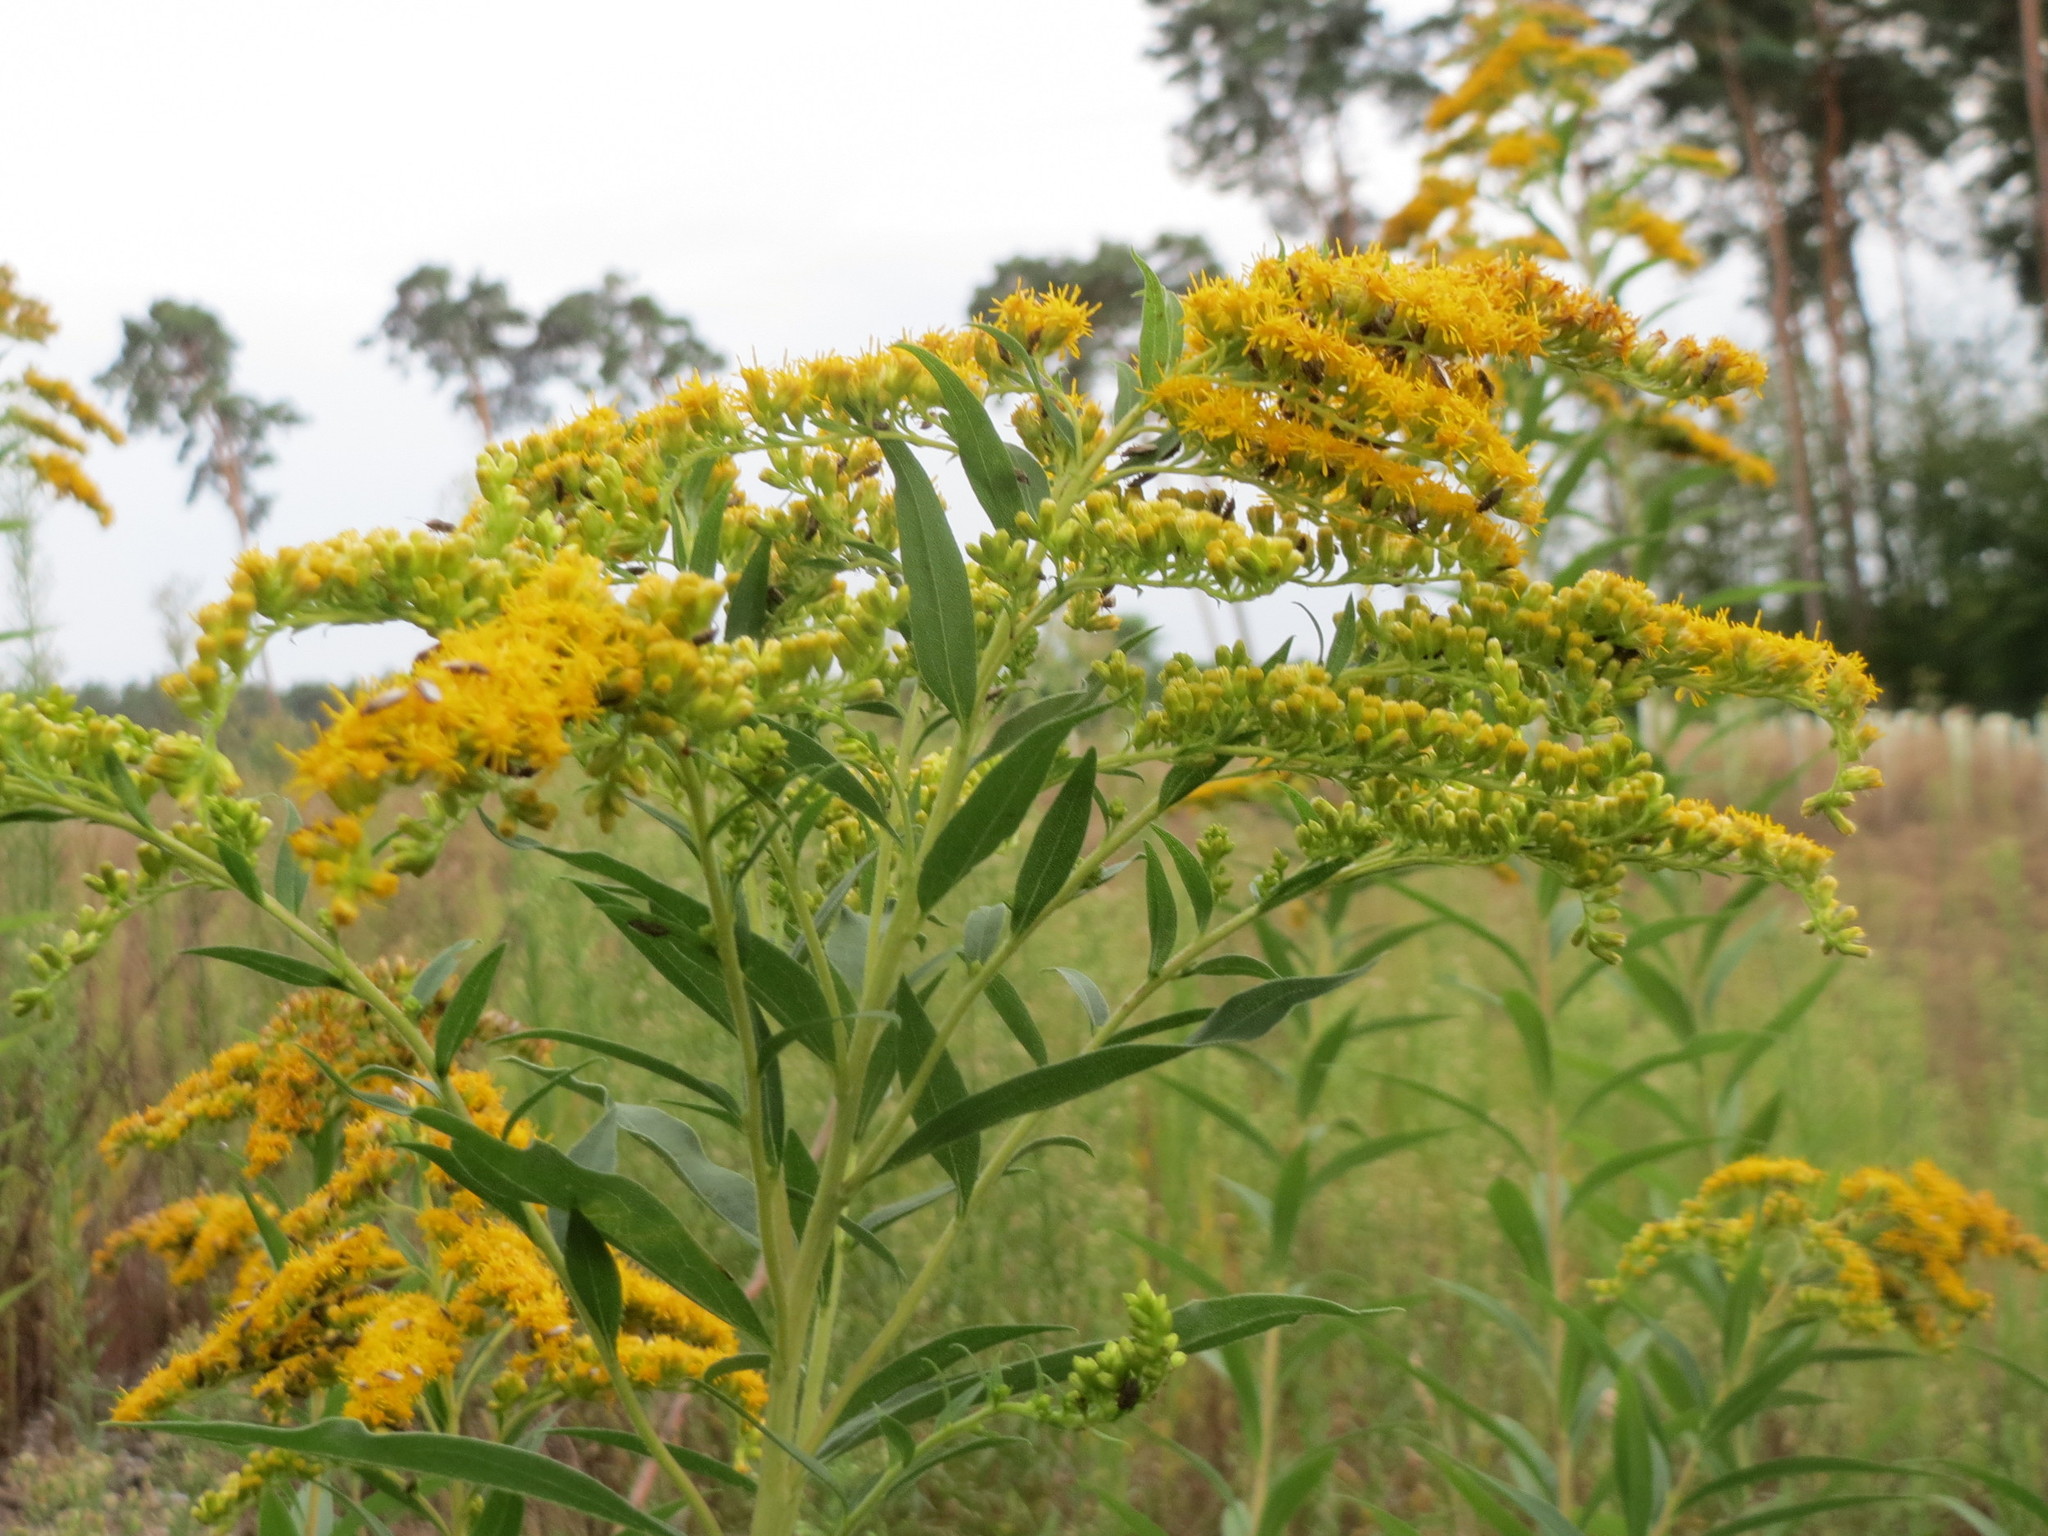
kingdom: Plantae
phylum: Tracheophyta
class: Magnoliopsida
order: Asterales
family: Asteraceae
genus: Solidago
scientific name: Solidago canadensis
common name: Canada goldenrod
